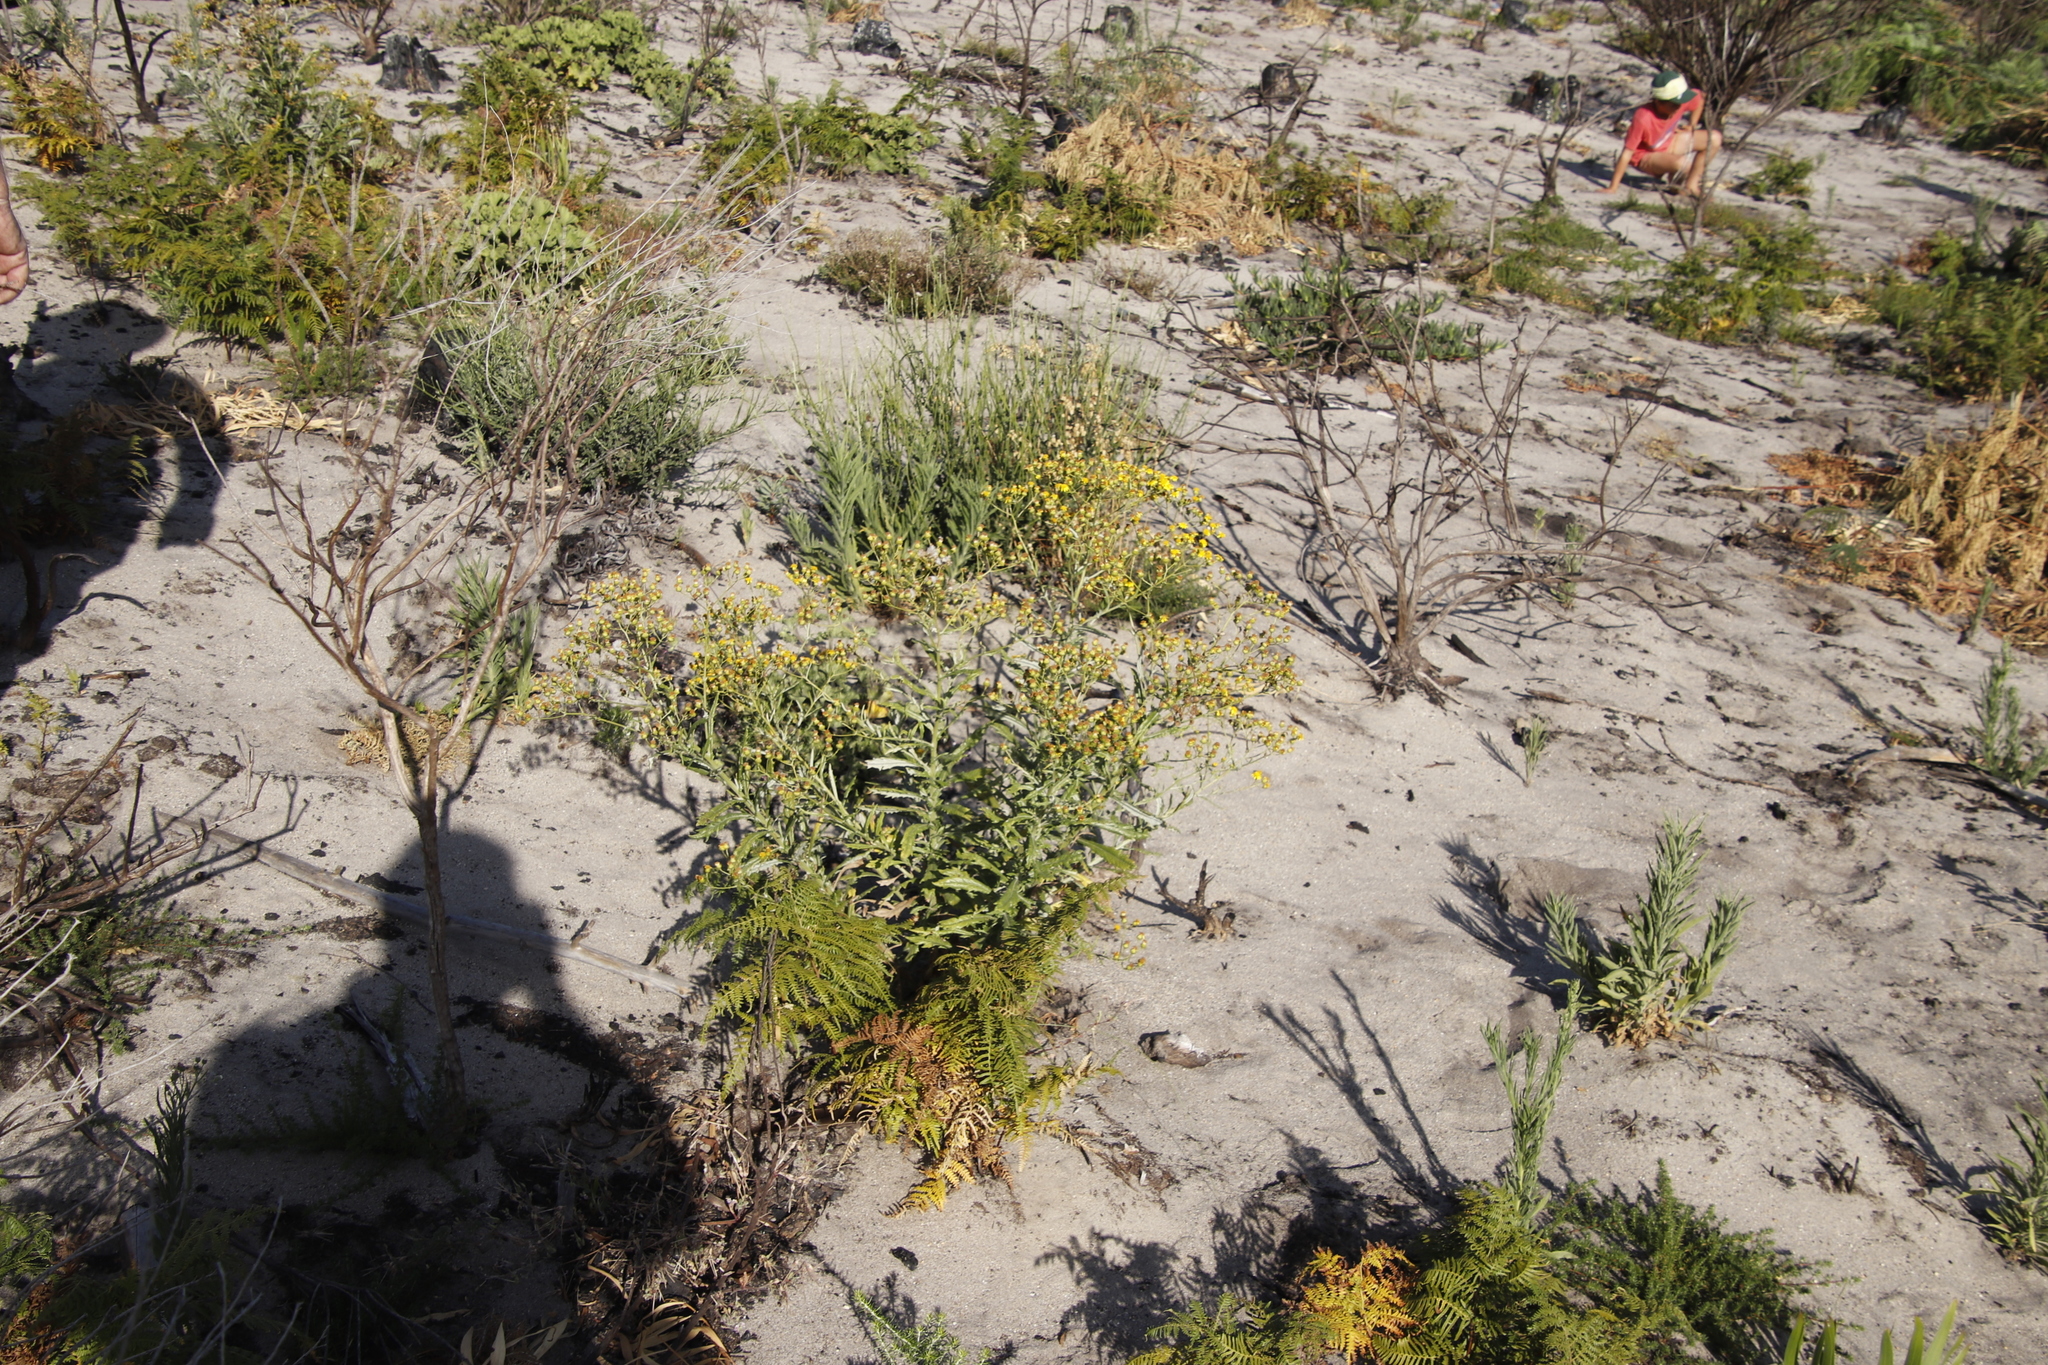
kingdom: Plantae
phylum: Tracheophyta
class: Magnoliopsida
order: Asterales
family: Asteraceae
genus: Senecio
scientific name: Senecio pterophorus
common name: Shoddy ragwort
